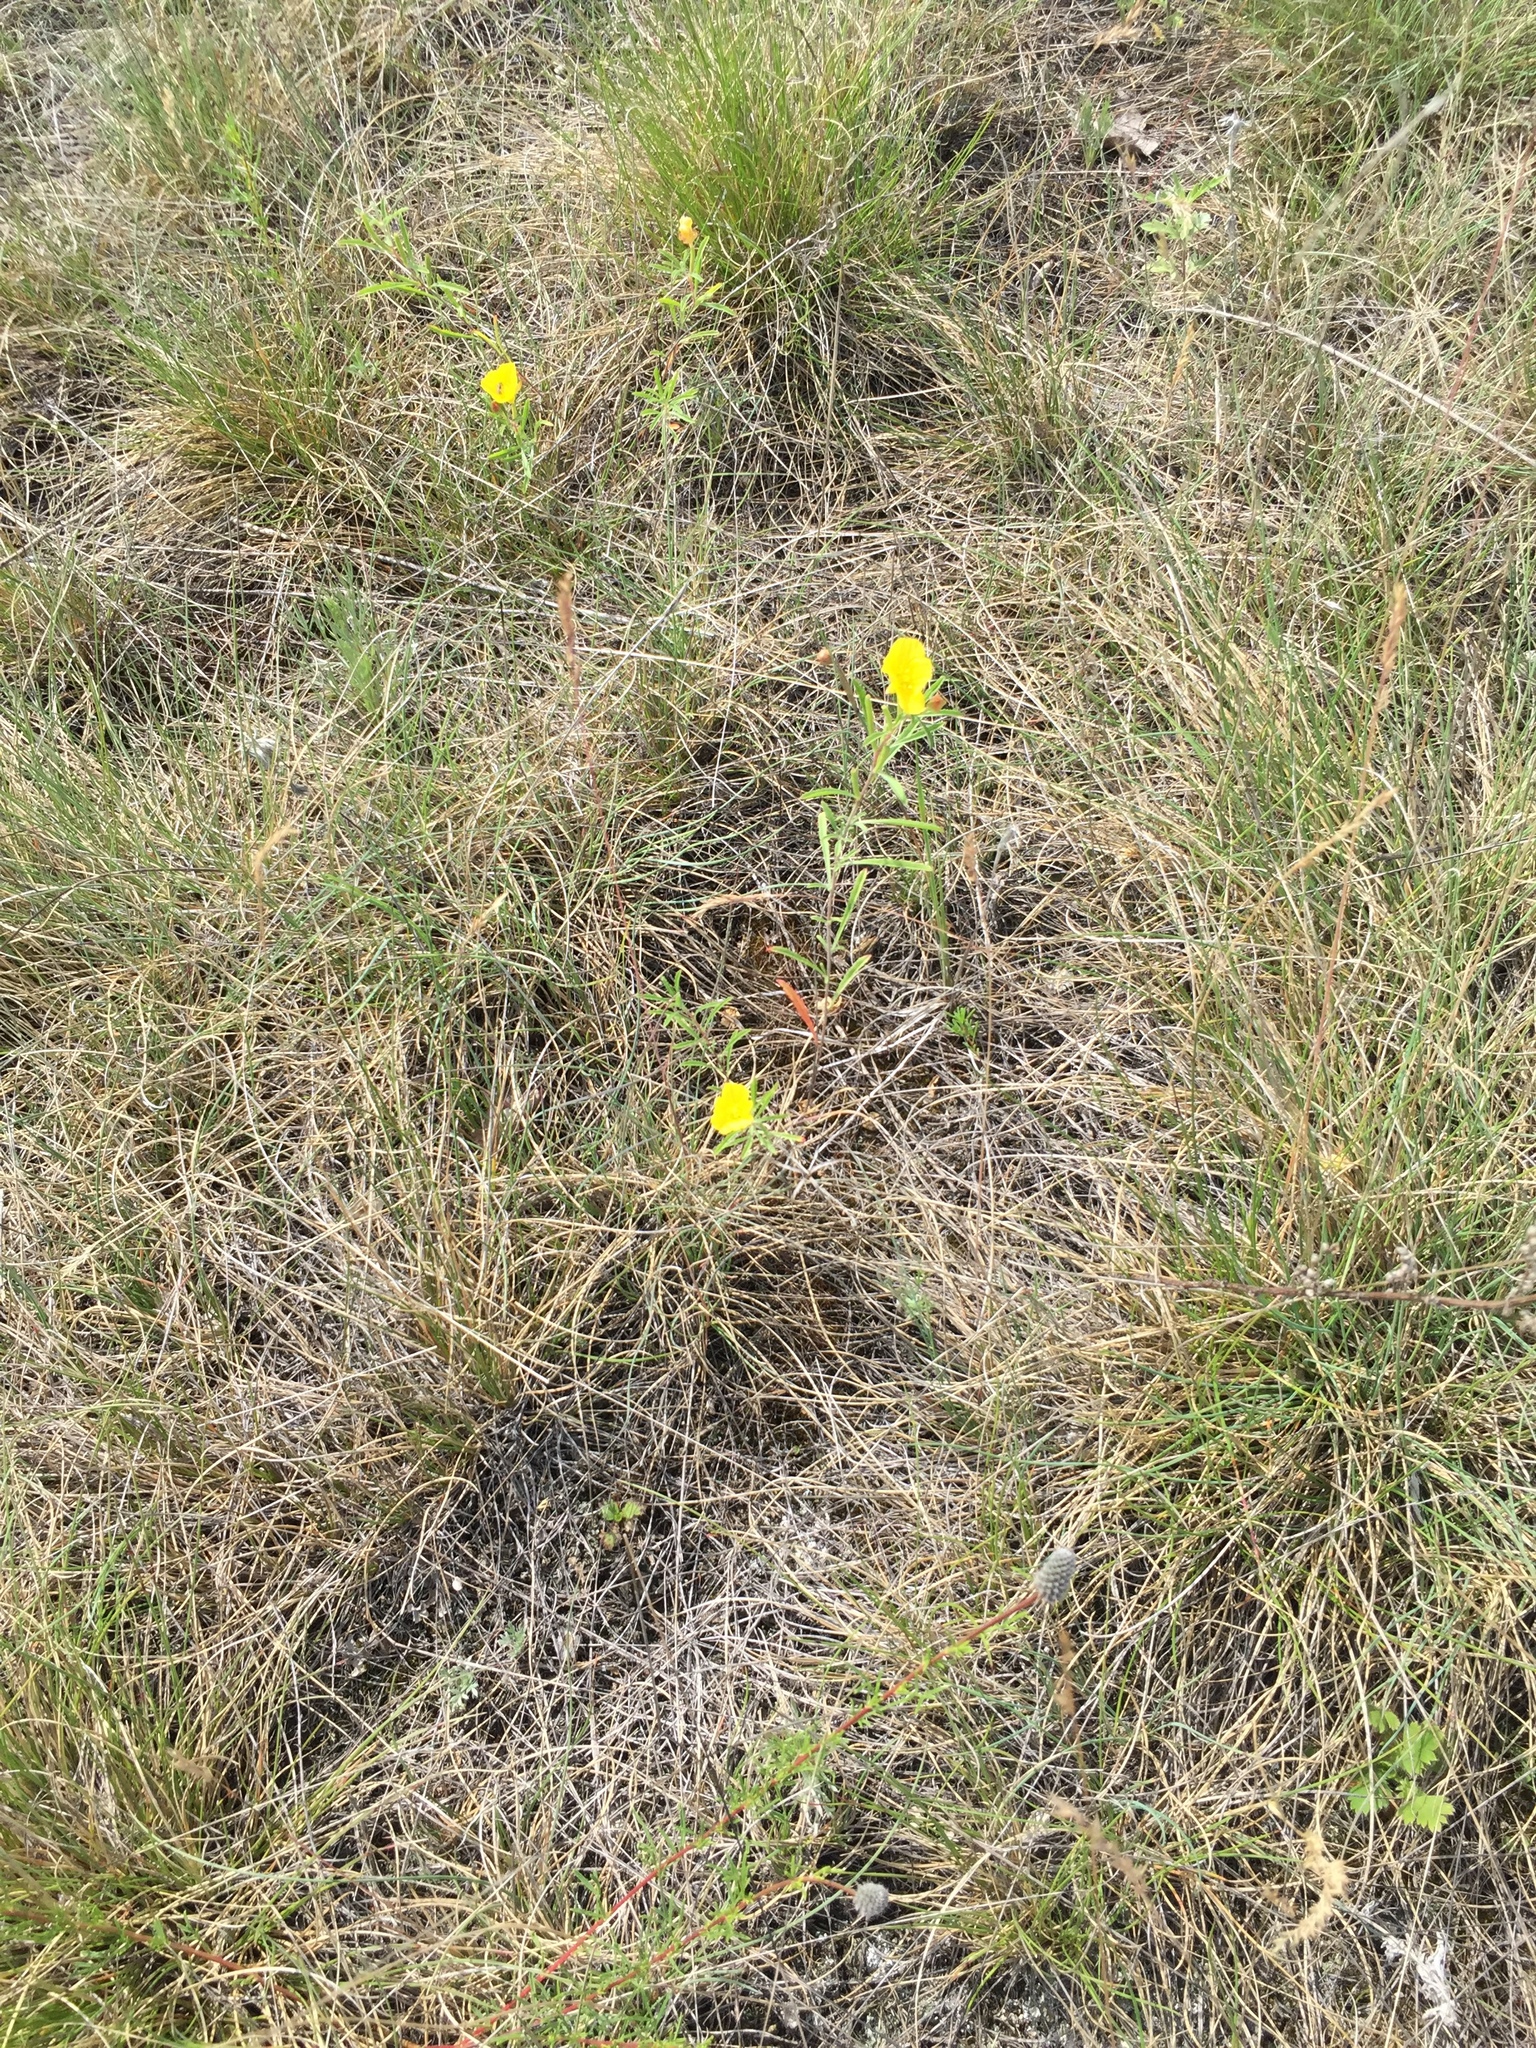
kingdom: Plantae
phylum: Tracheophyta
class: Magnoliopsida
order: Myrtales
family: Onagraceae
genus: Oenothera
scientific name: Oenothera serrulata
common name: Half-shrub calylophus
